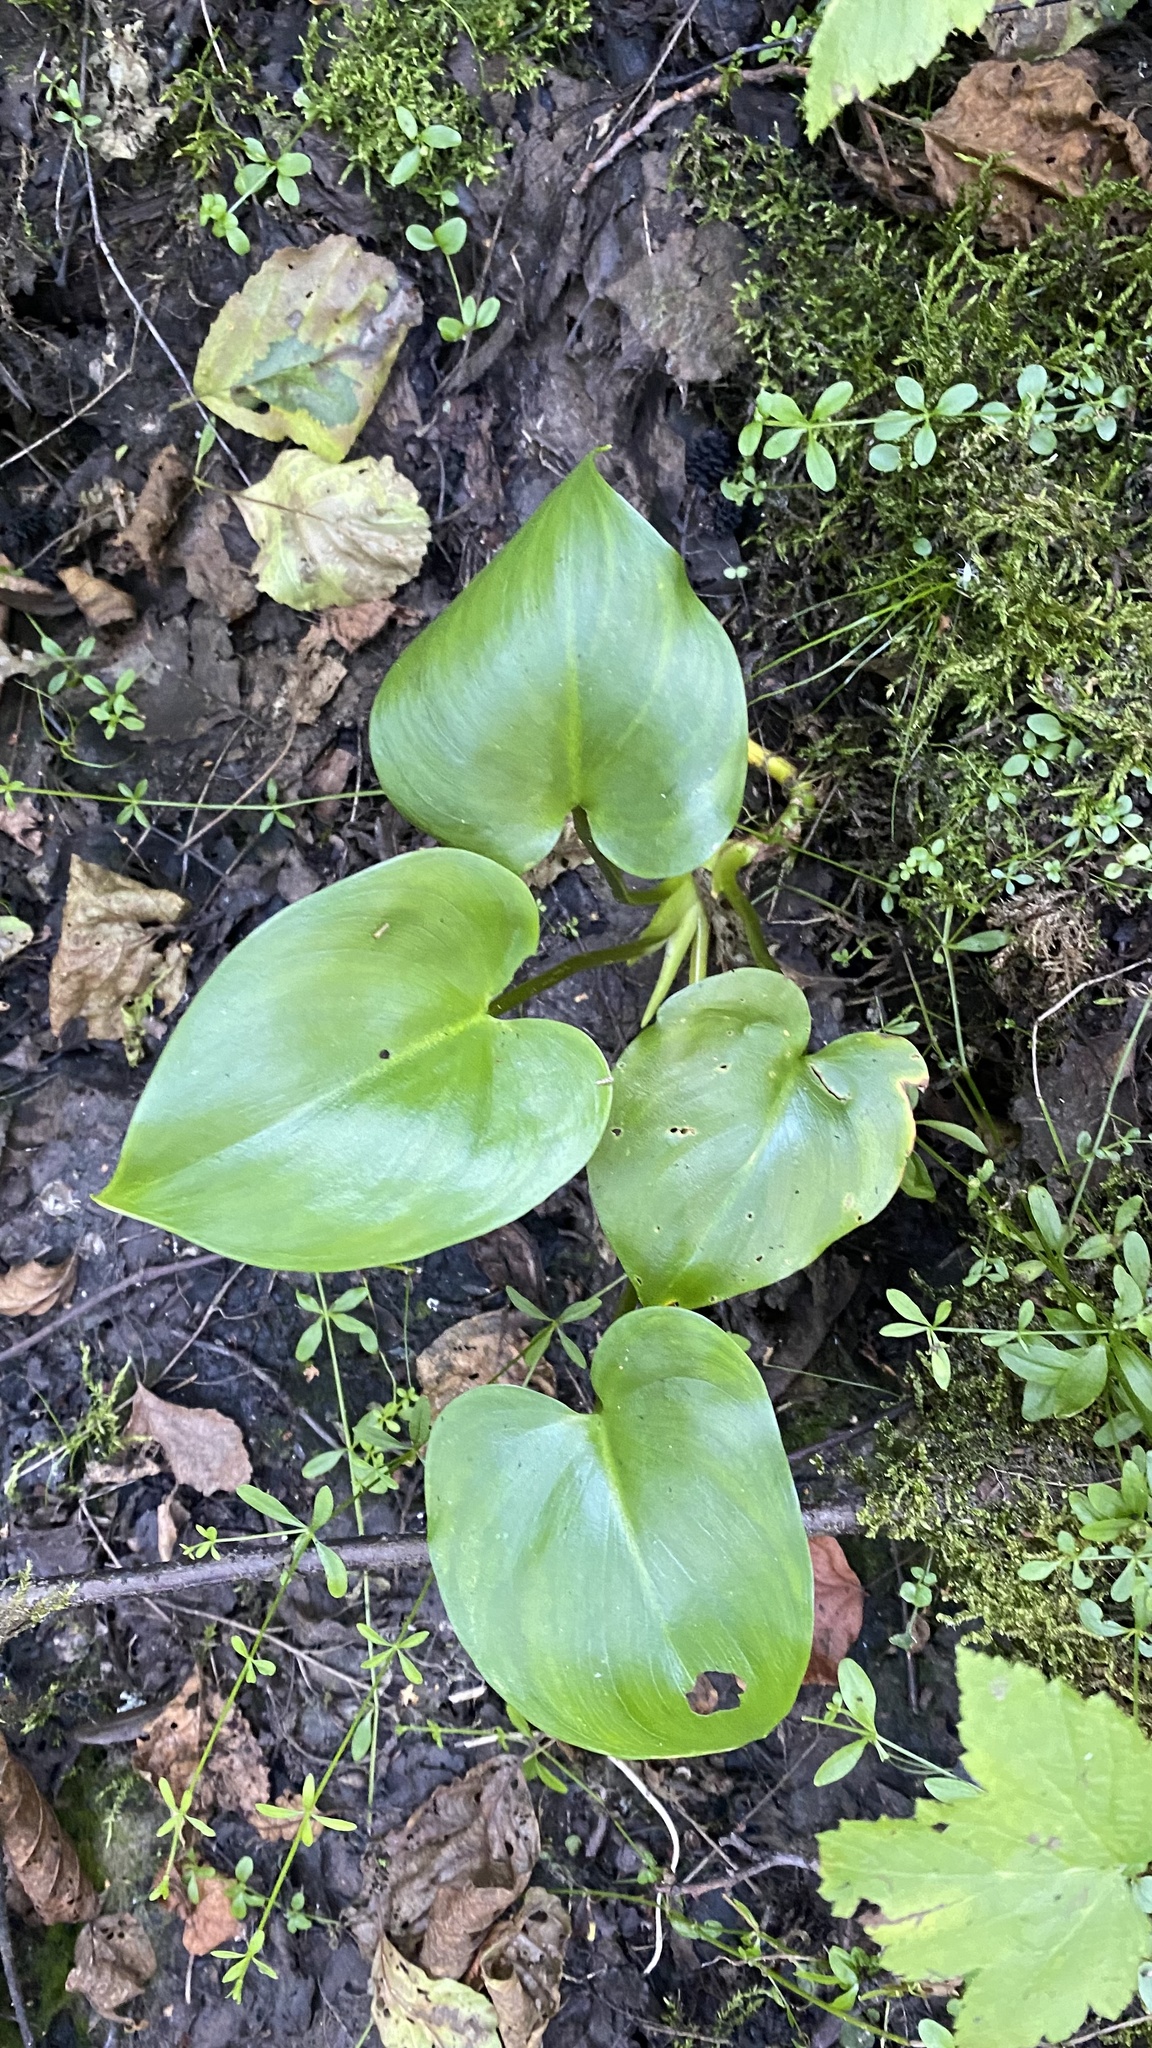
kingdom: Plantae
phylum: Tracheophyta
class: Liliopsida
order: Alismatales
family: Araceae
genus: Calla
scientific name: Calla palustris
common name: Bog arum
